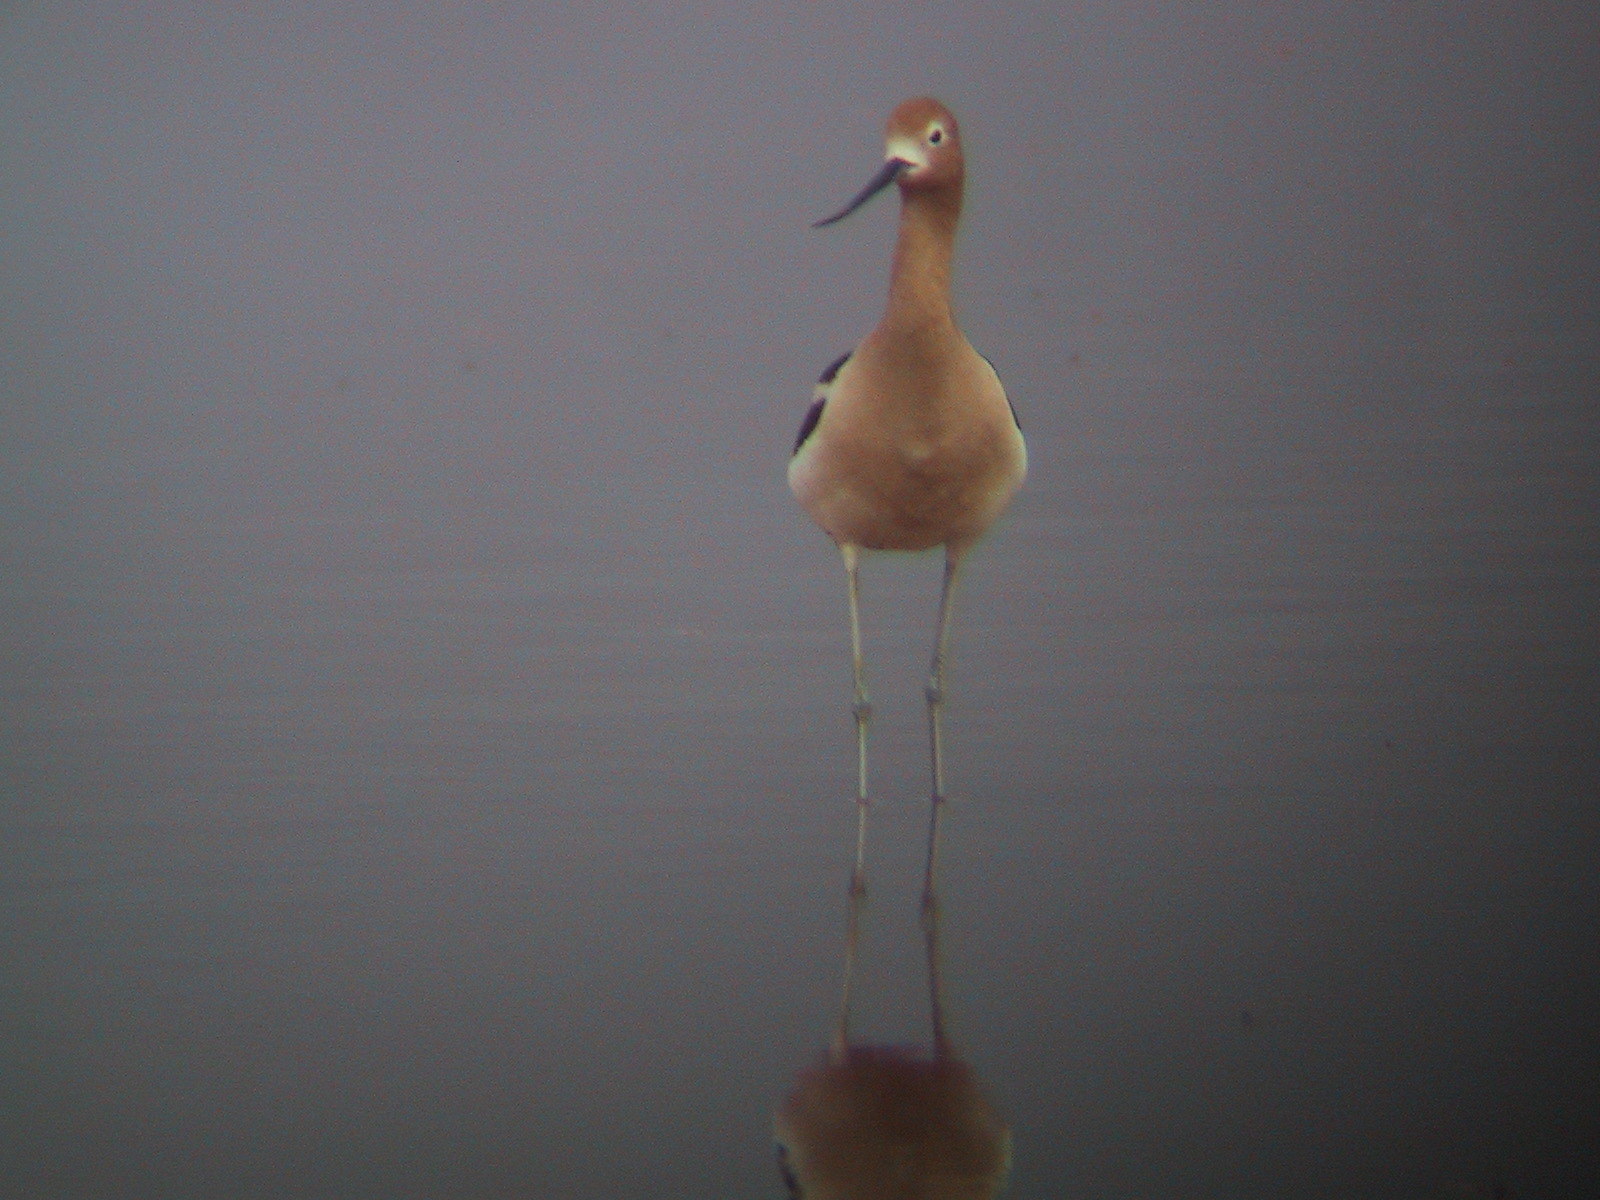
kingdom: Animalia
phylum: Chordata
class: Aves
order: Charadriiformes
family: Recurvirostridae
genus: Recurvirostra
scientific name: Recurvirostra americana
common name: American avocet
